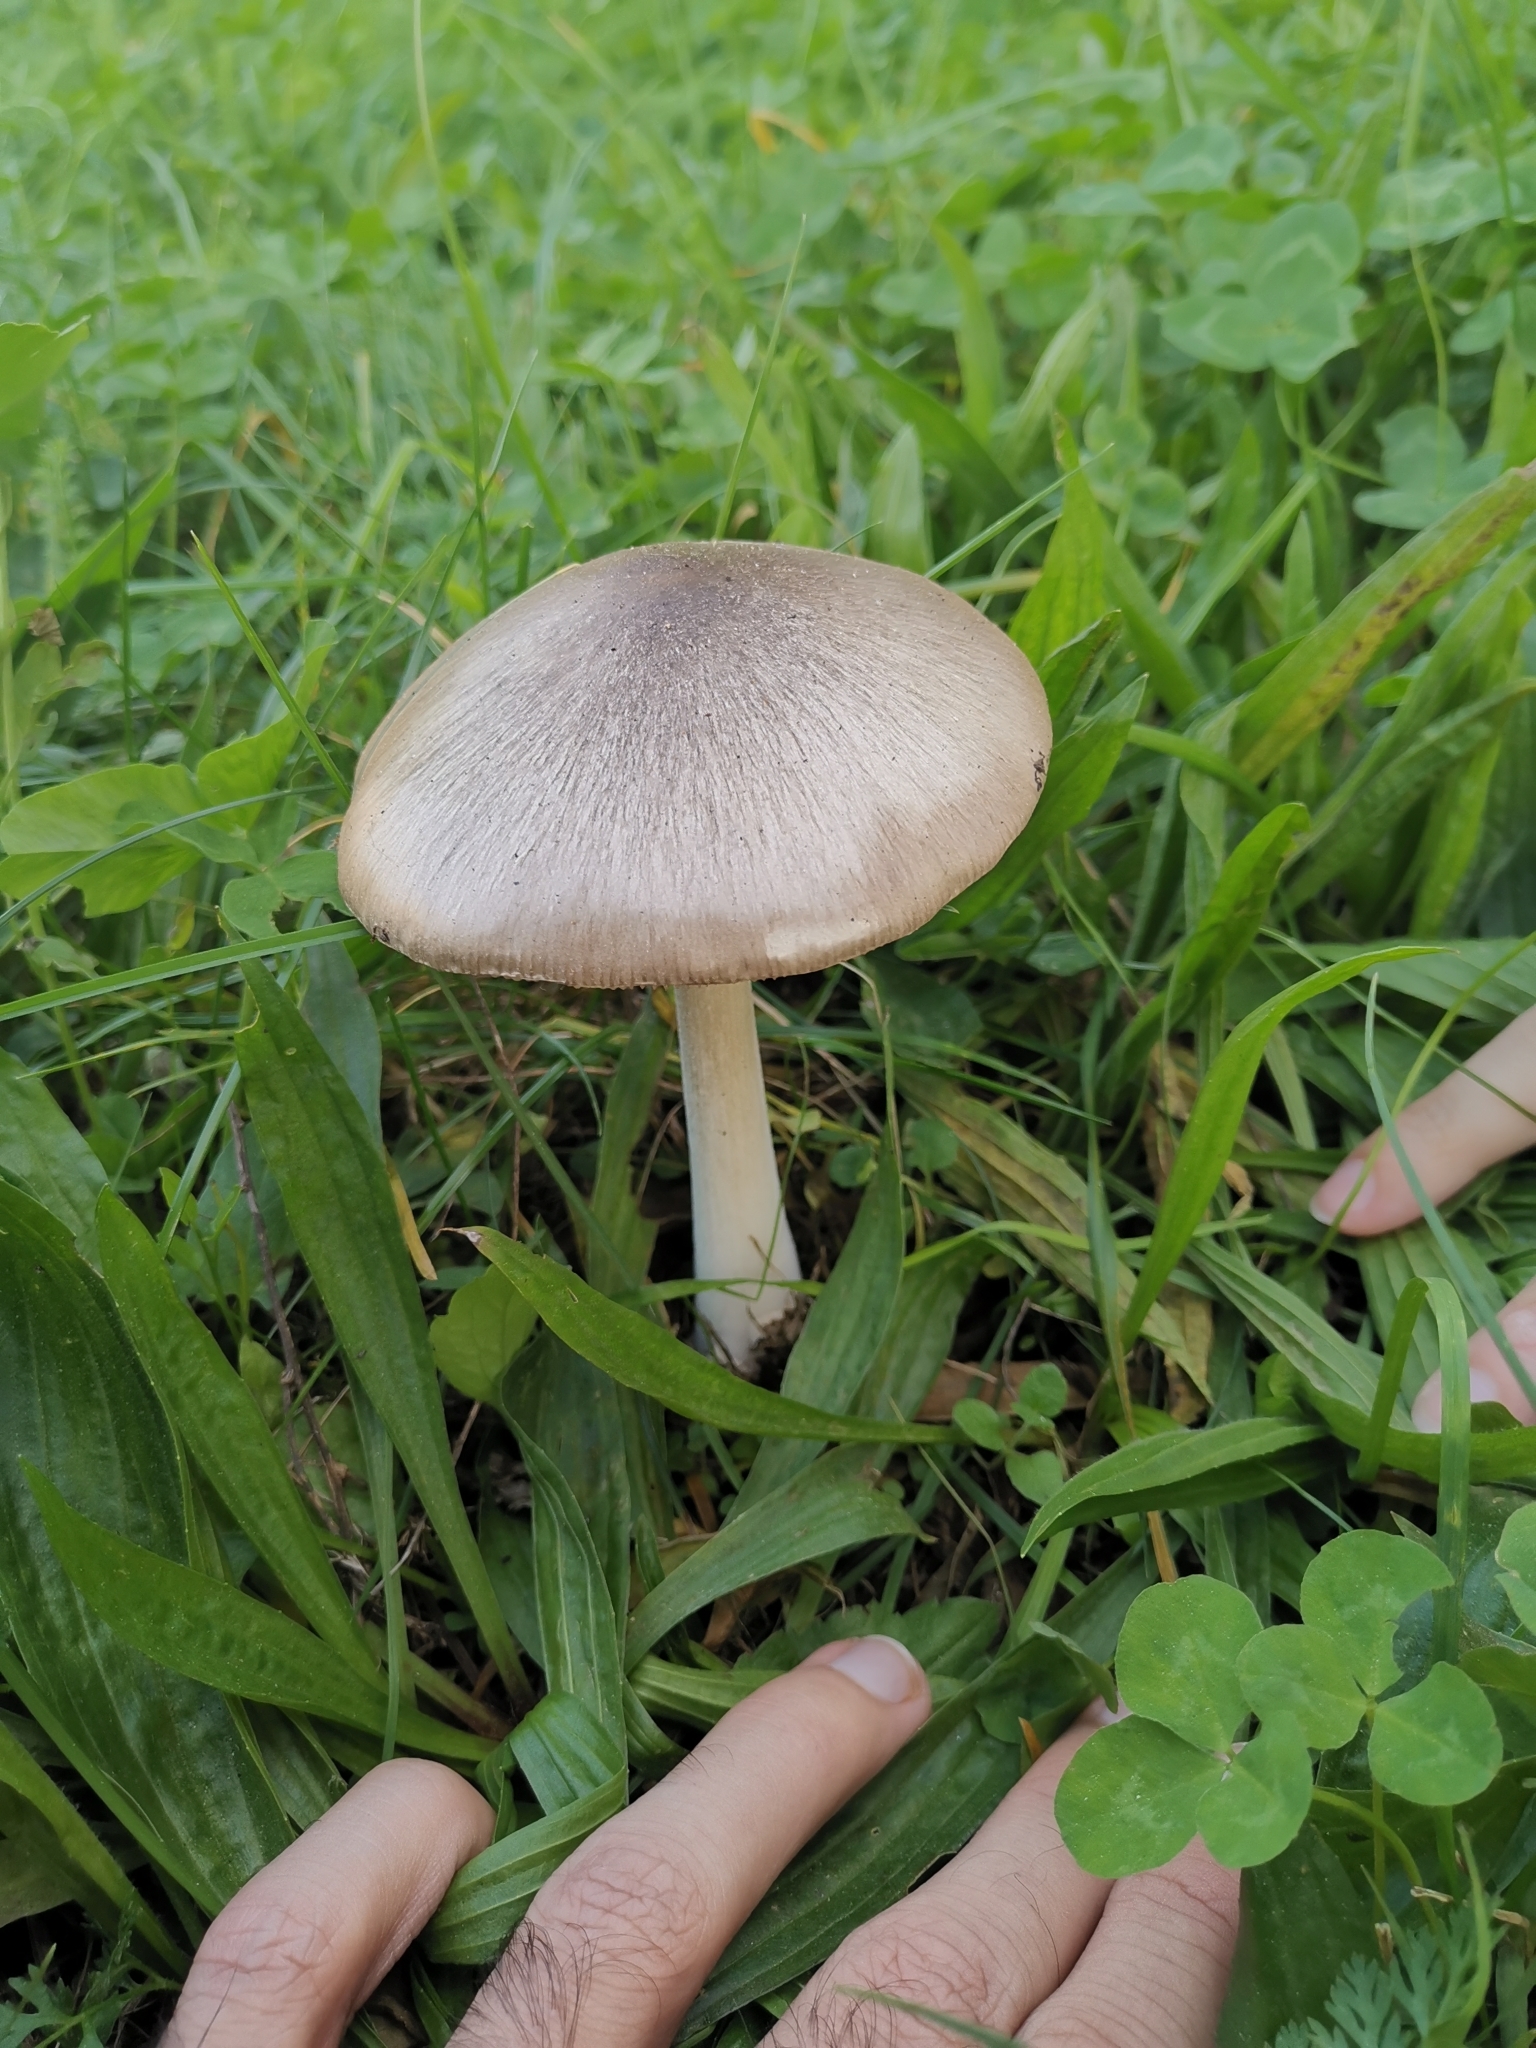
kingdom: Fungi
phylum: Basidiomycota
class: Agaricomycetes
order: Agaricales
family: Pluteaceae
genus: Volvopluteus
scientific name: Volvopluteus gloiocephalus
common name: Stubble rosegill
